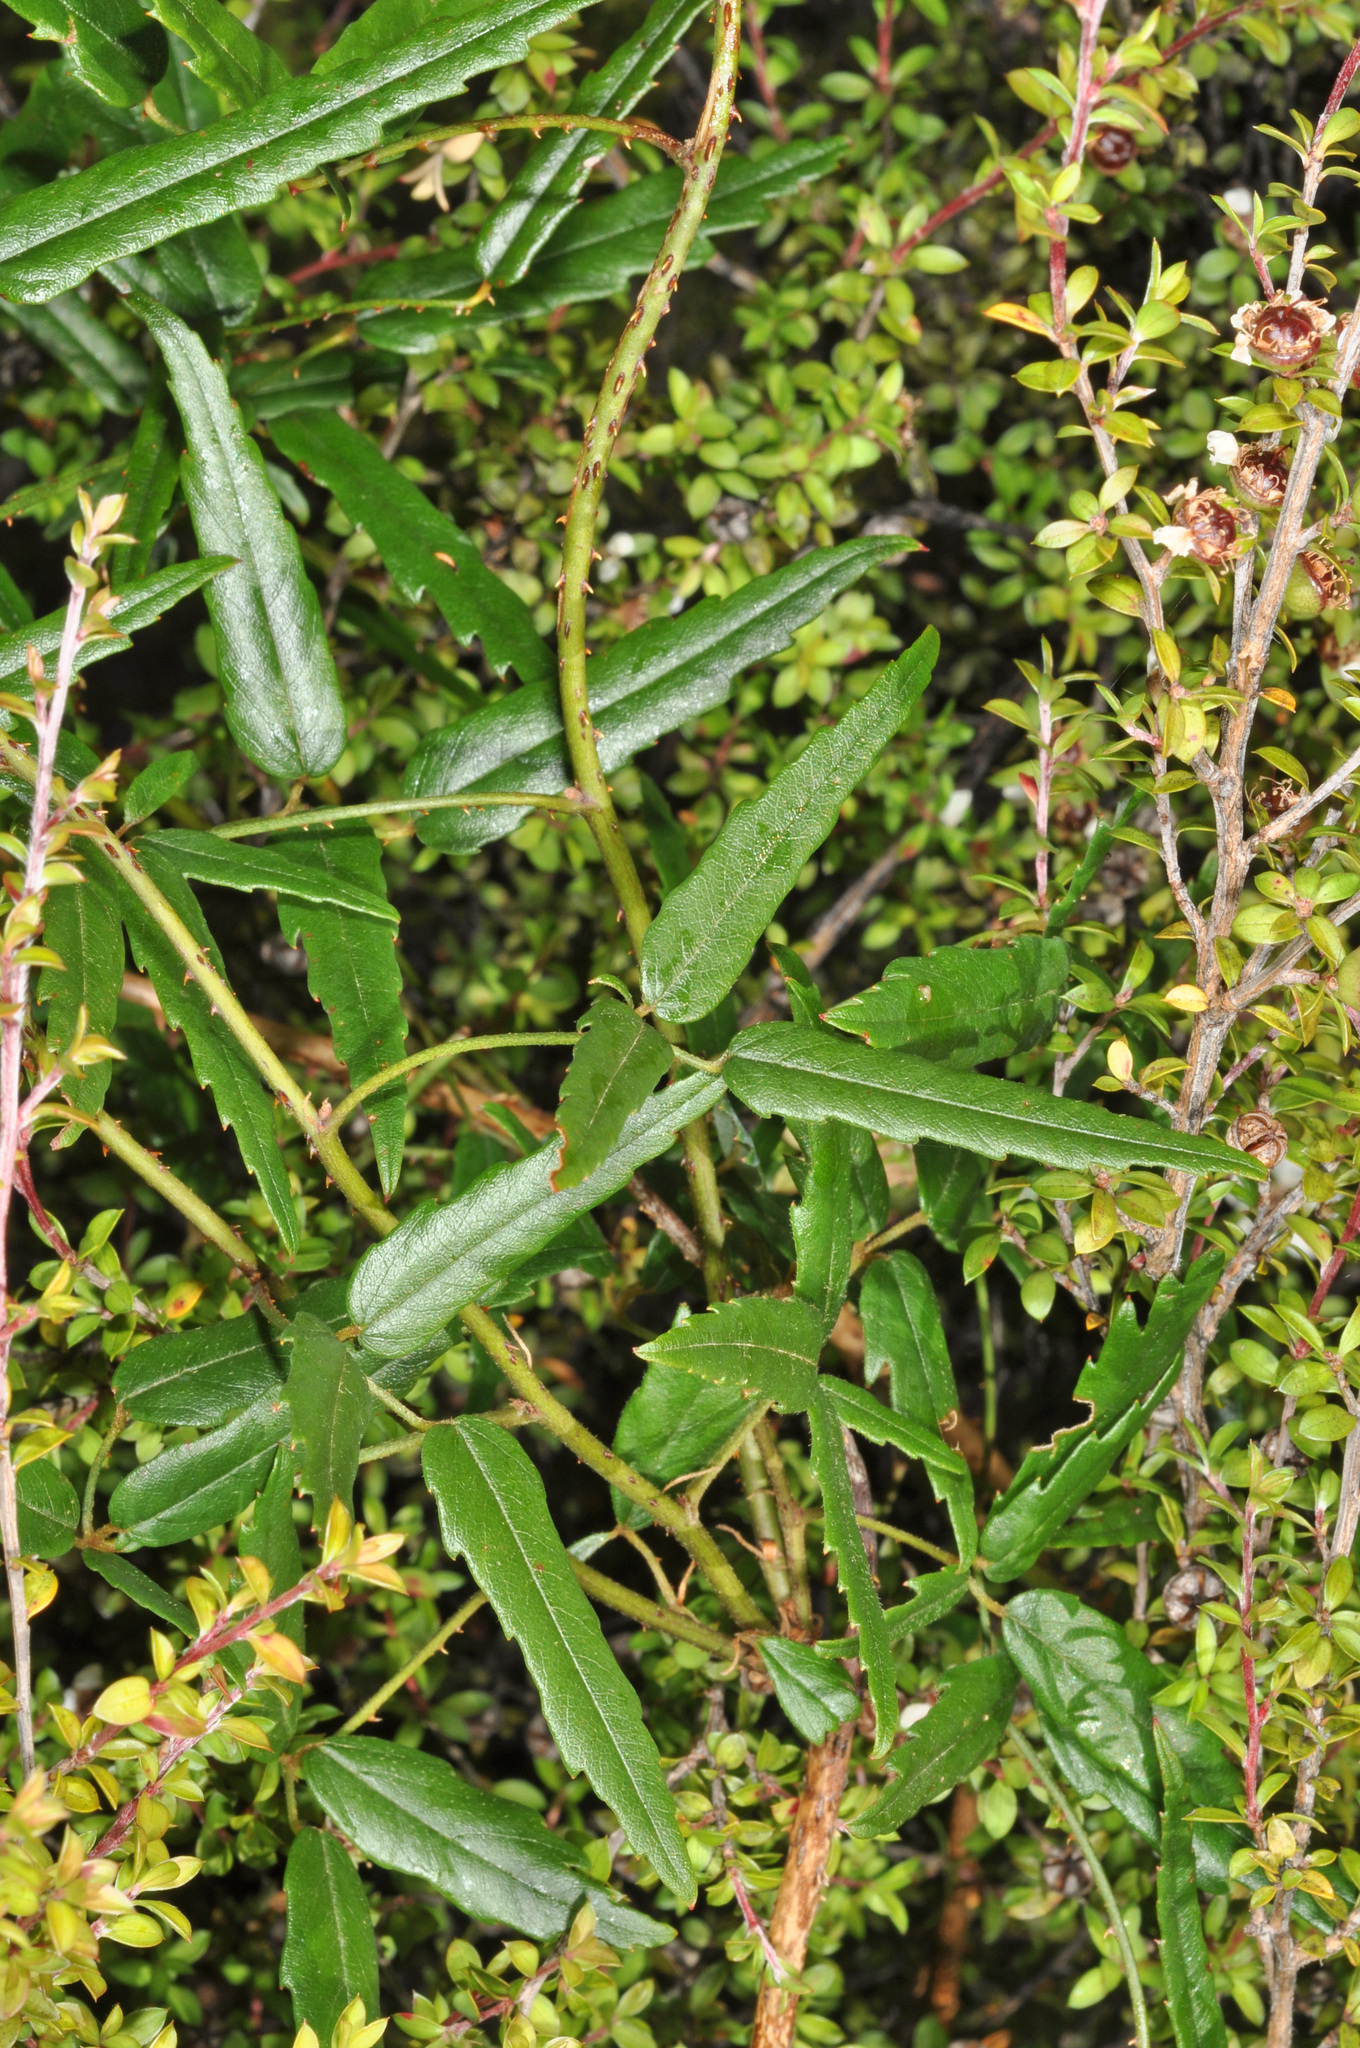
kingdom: Plantae
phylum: Tracheophyta
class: Magnoliopsida
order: Rosales
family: Rosaceae
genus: Rubus
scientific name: Rubus schmidelioides
